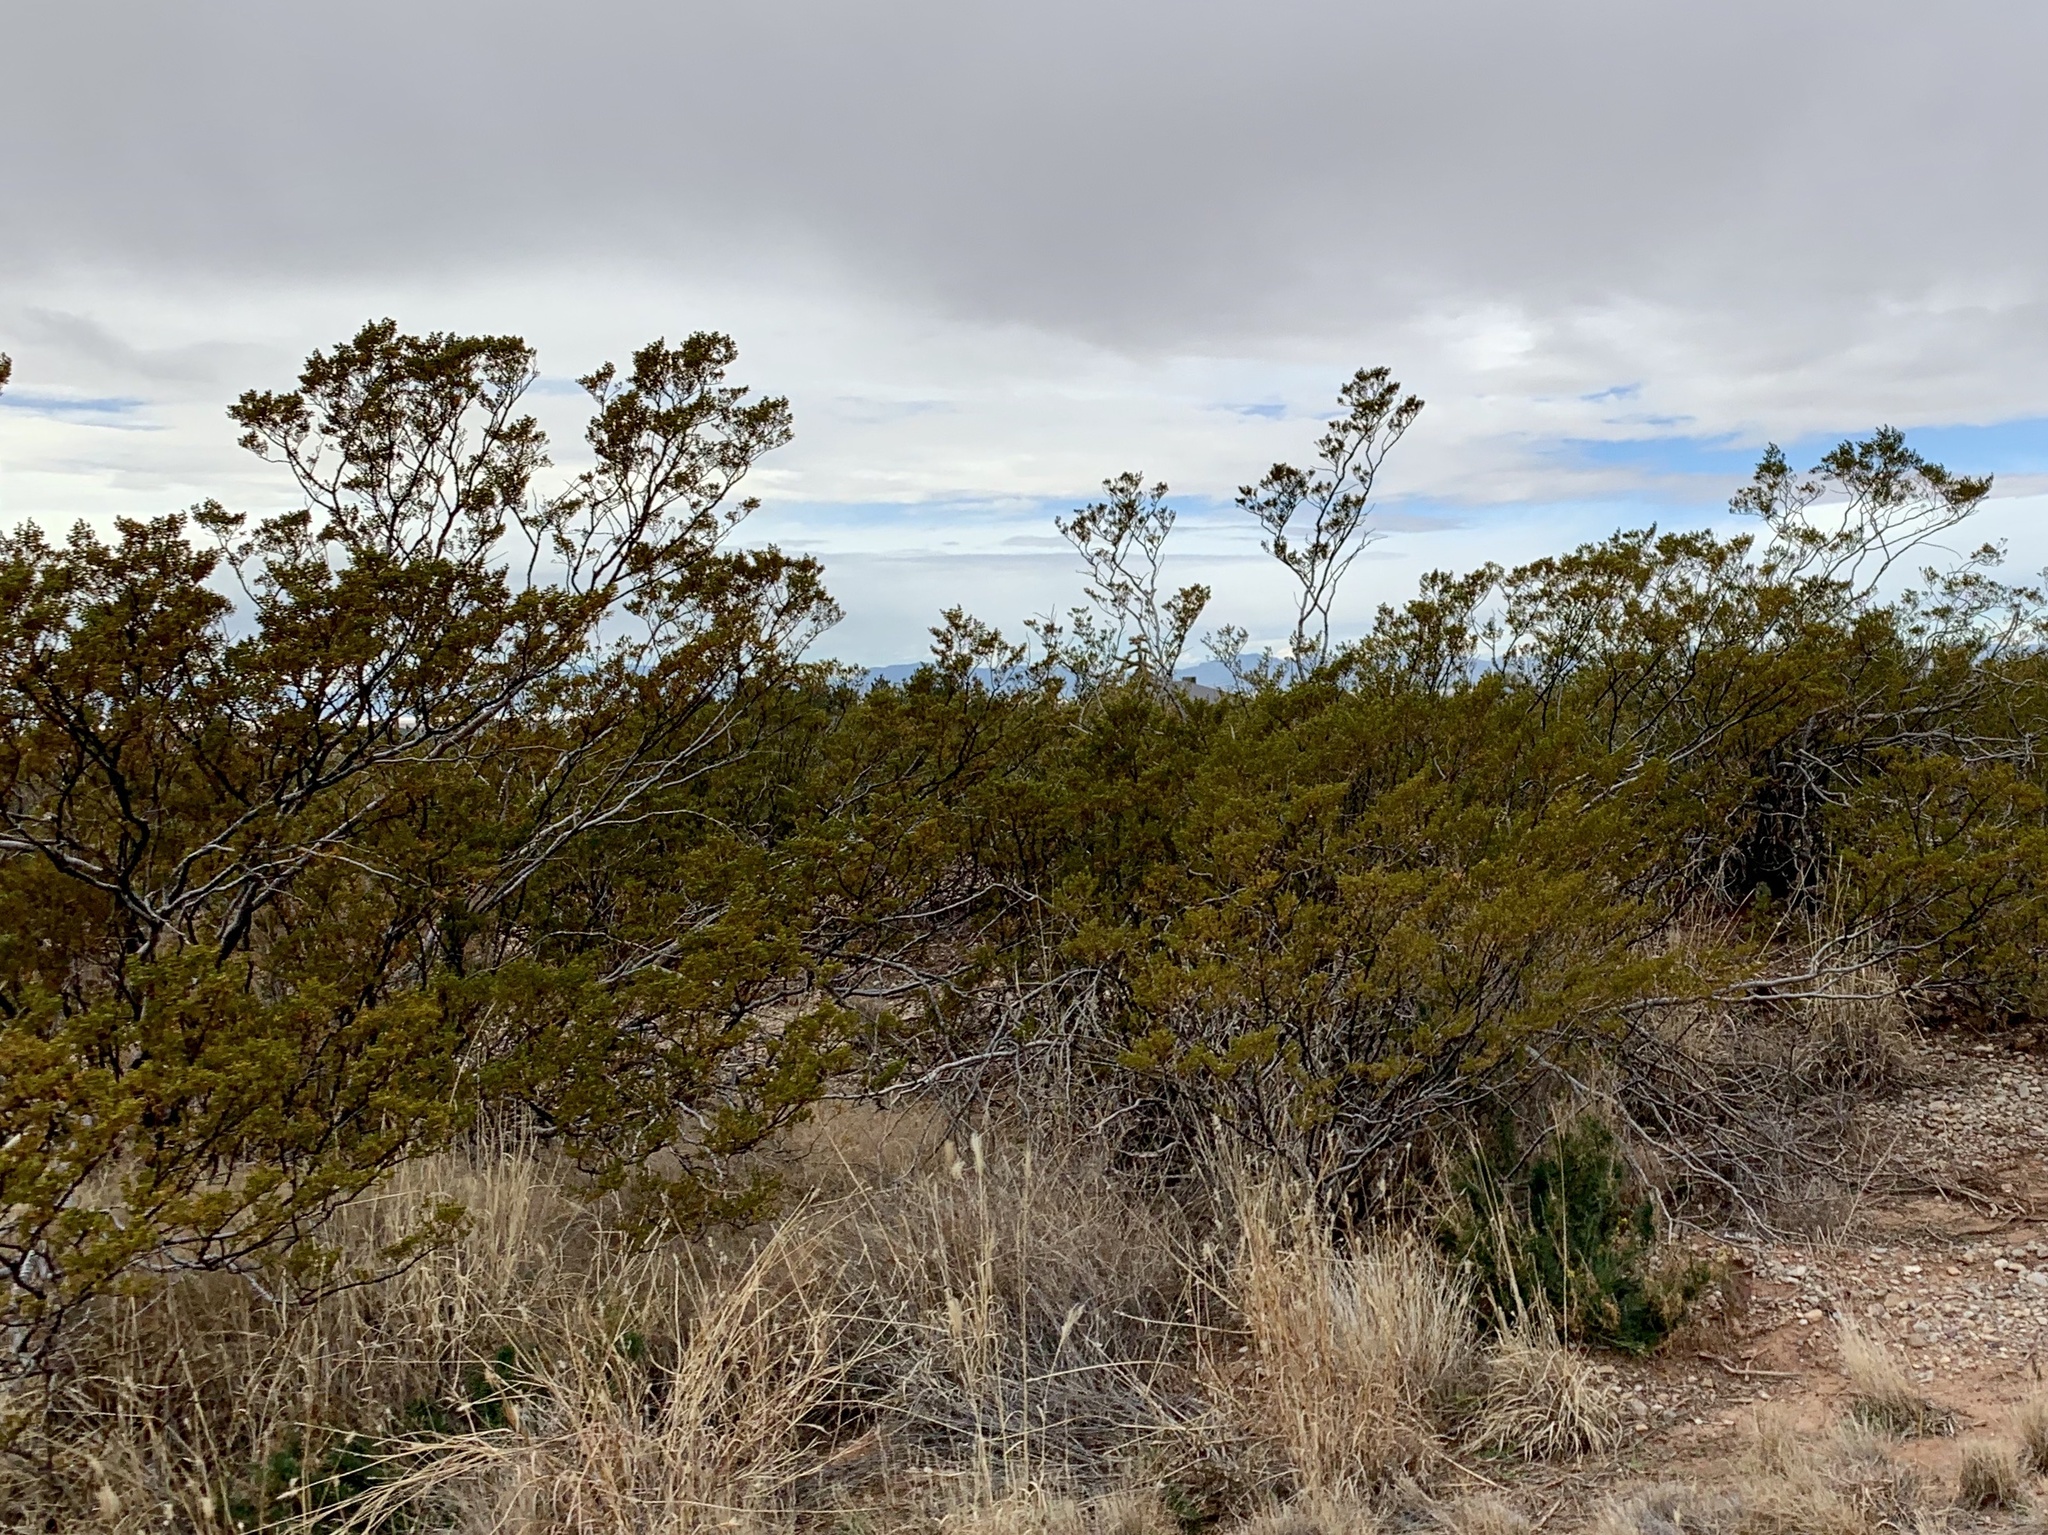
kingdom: Plantae
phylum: Tracheophyta
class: Magnoliopsida
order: Zygophyllales
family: Zygophyllaceae
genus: Larrea
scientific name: Larrea tridentata
